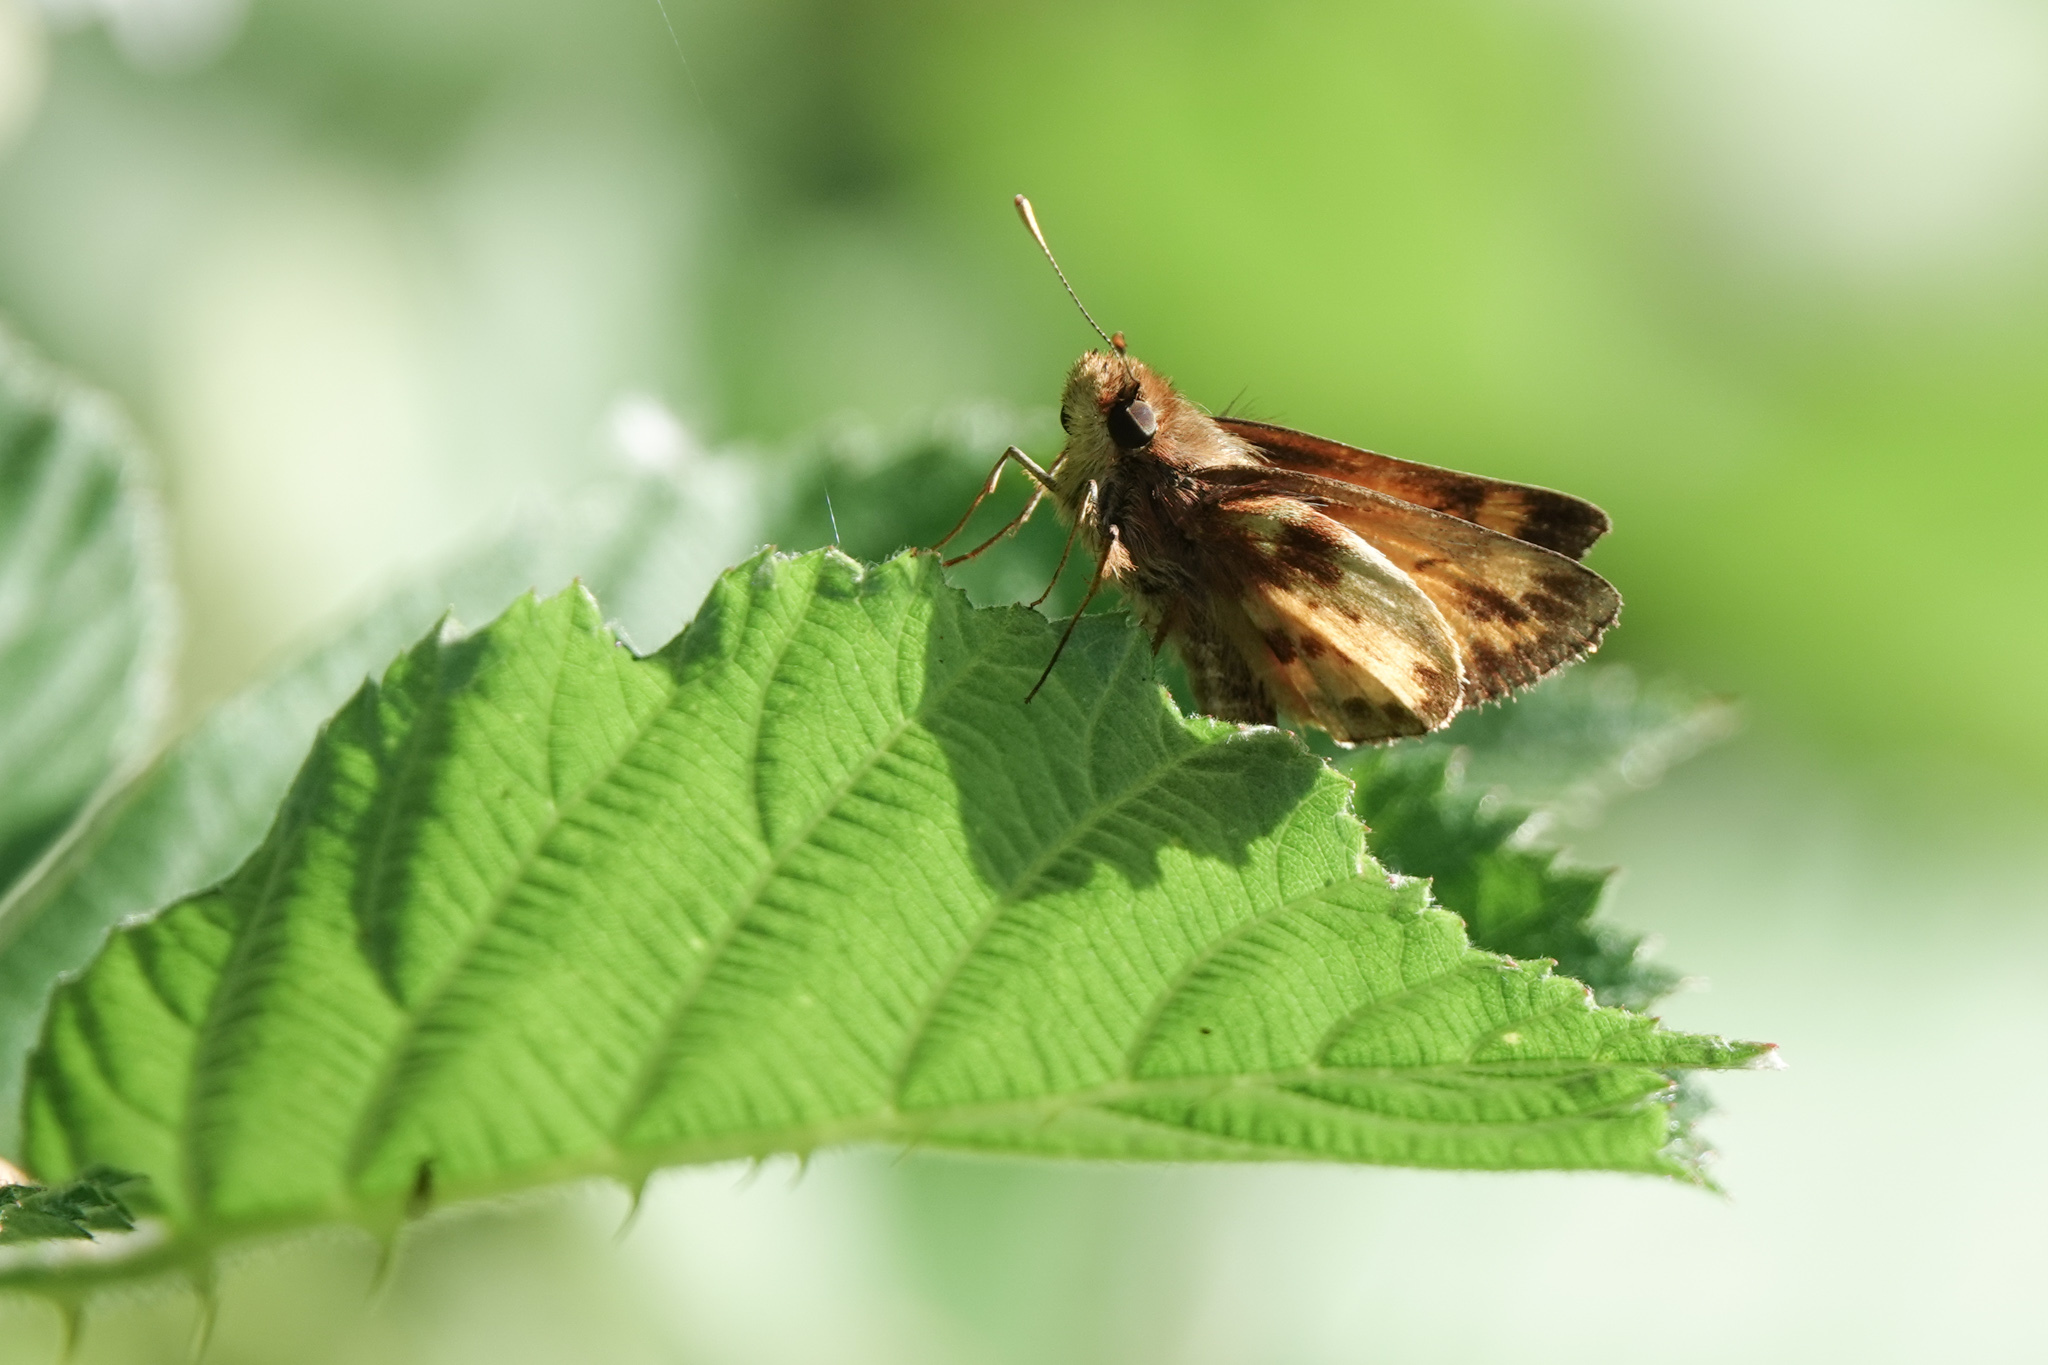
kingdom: Animalia
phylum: Arthropoda
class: Insecta
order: Lepidoptera
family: Hesperiidae
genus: Lon
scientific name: Lon zabulon
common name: Zabulon skipper
